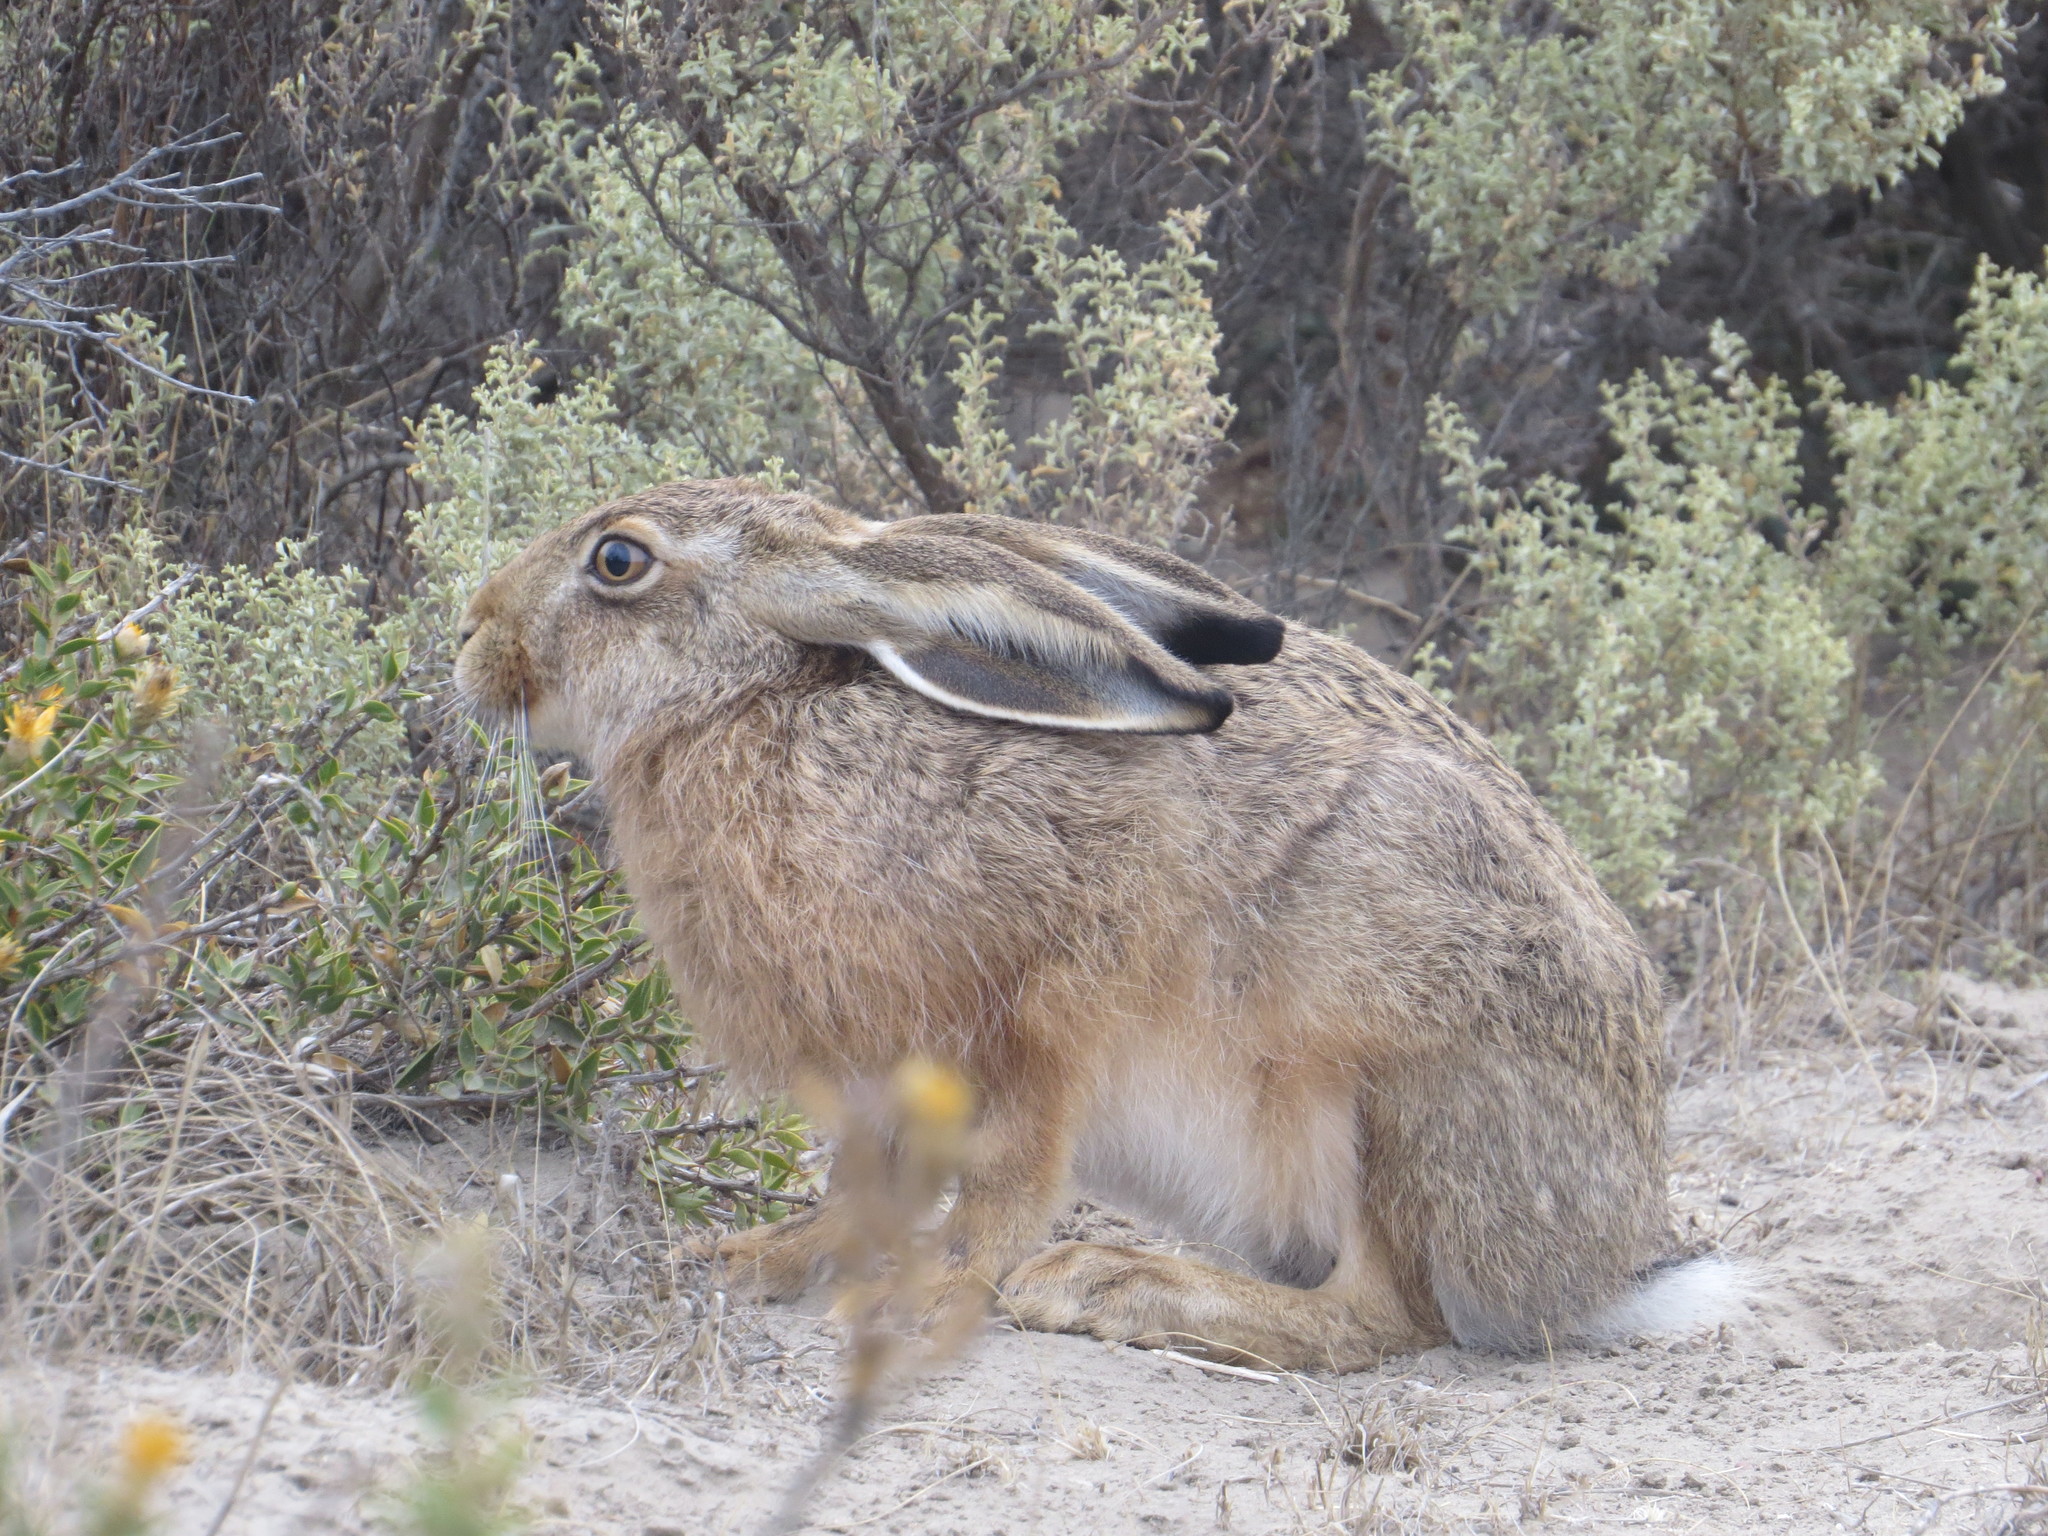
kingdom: Animalia
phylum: Chordata
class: Mammalia
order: Lagomorpha
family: Leporidae
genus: Lepus
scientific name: Lepus europaeus
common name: European hare
